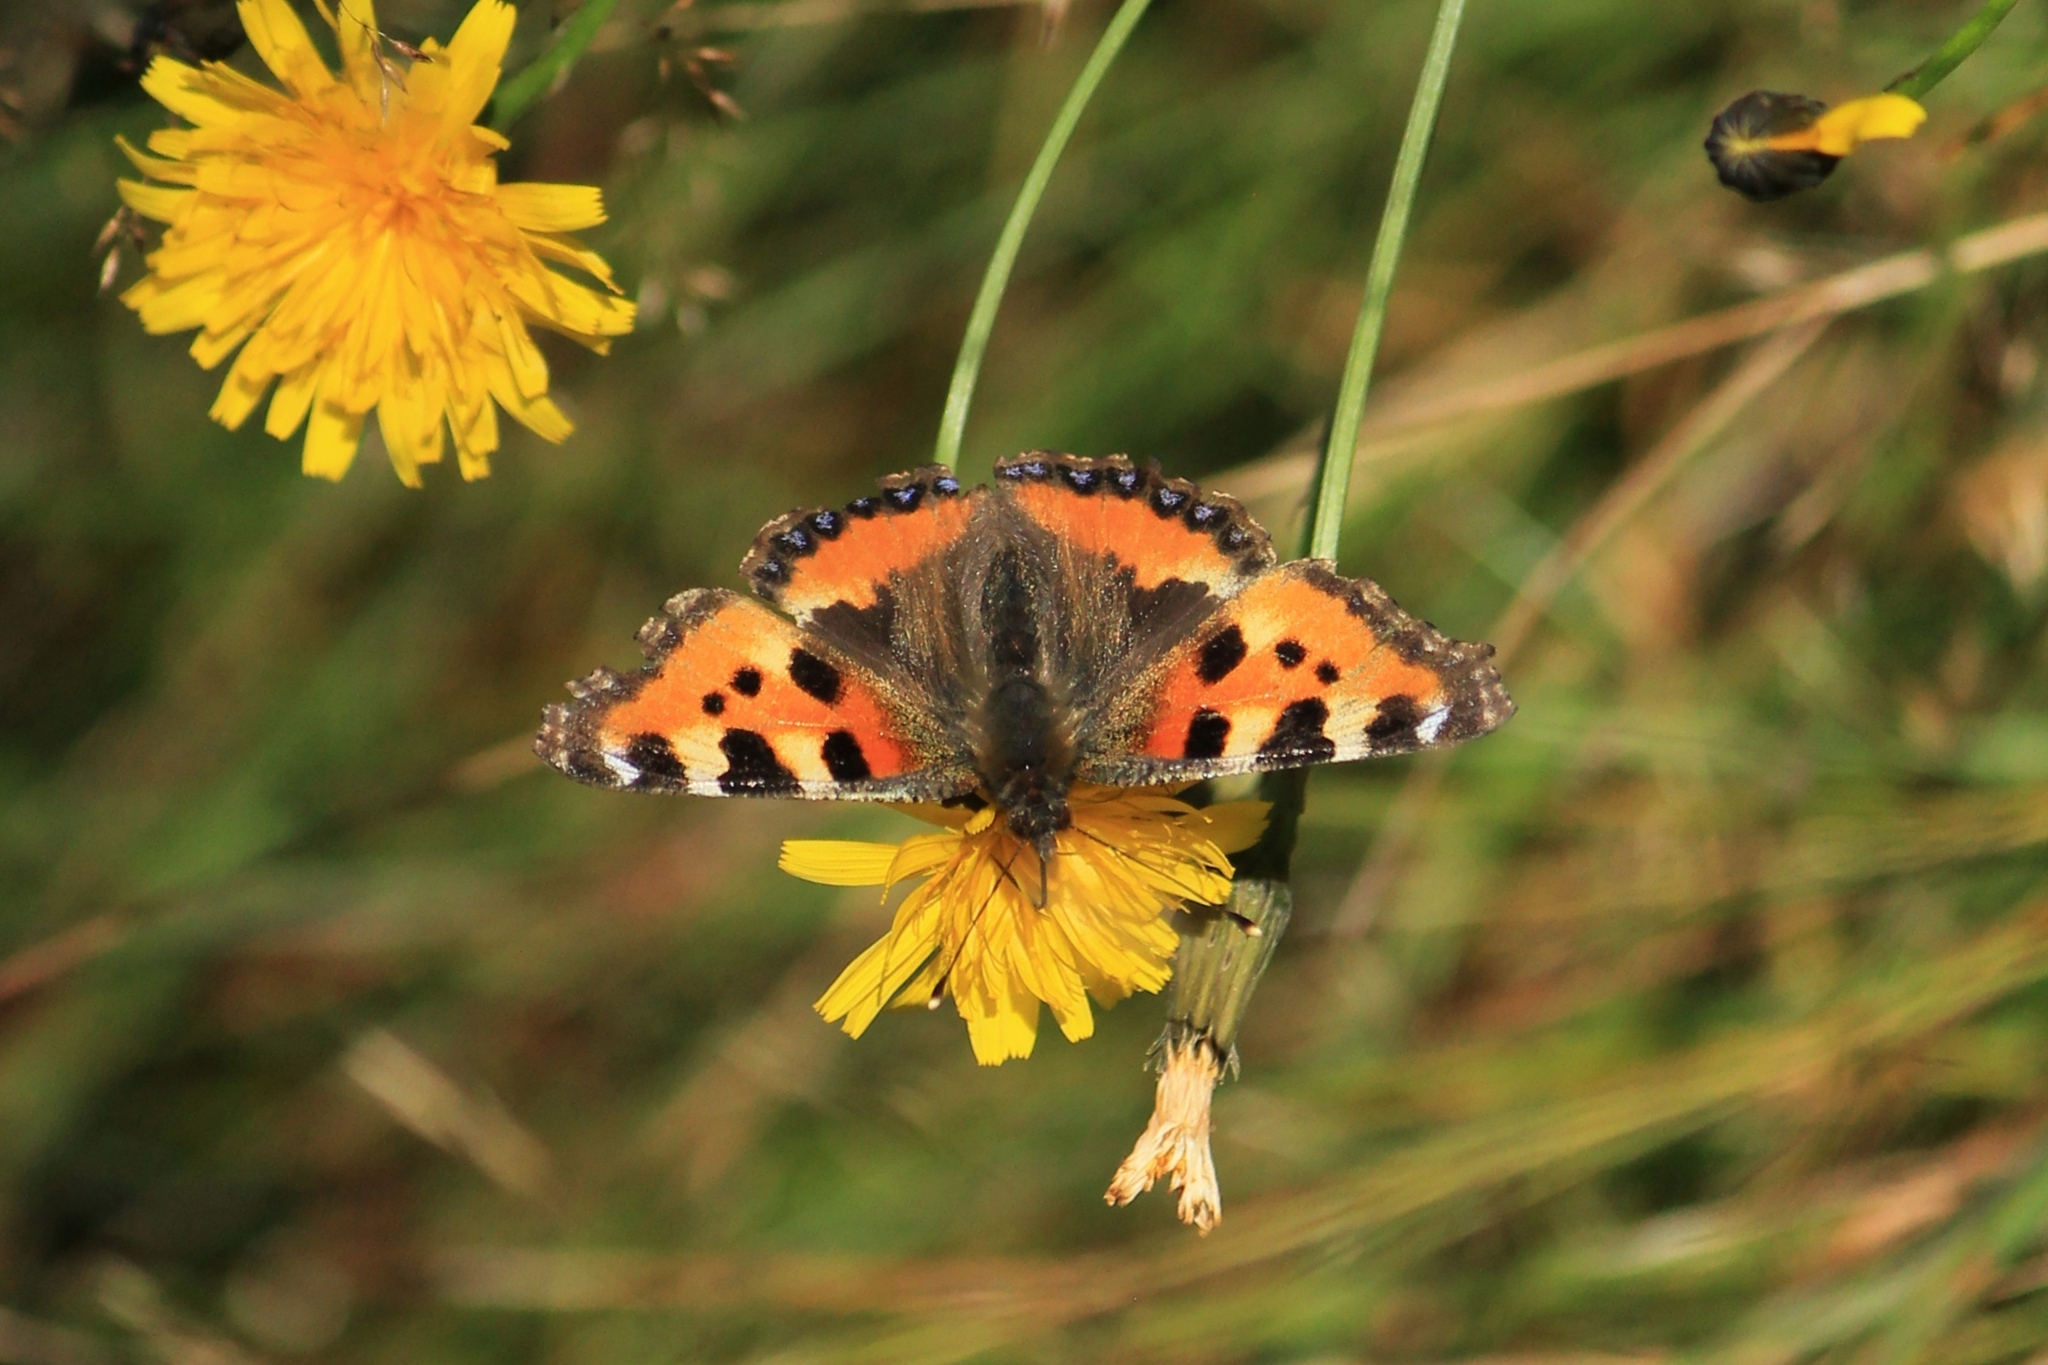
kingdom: Animalia
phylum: Arthropoda
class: Insecta
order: Lepidoptera
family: Nymphalidae
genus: Aglais
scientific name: Aglais urticae
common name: Small tortoiseshell
